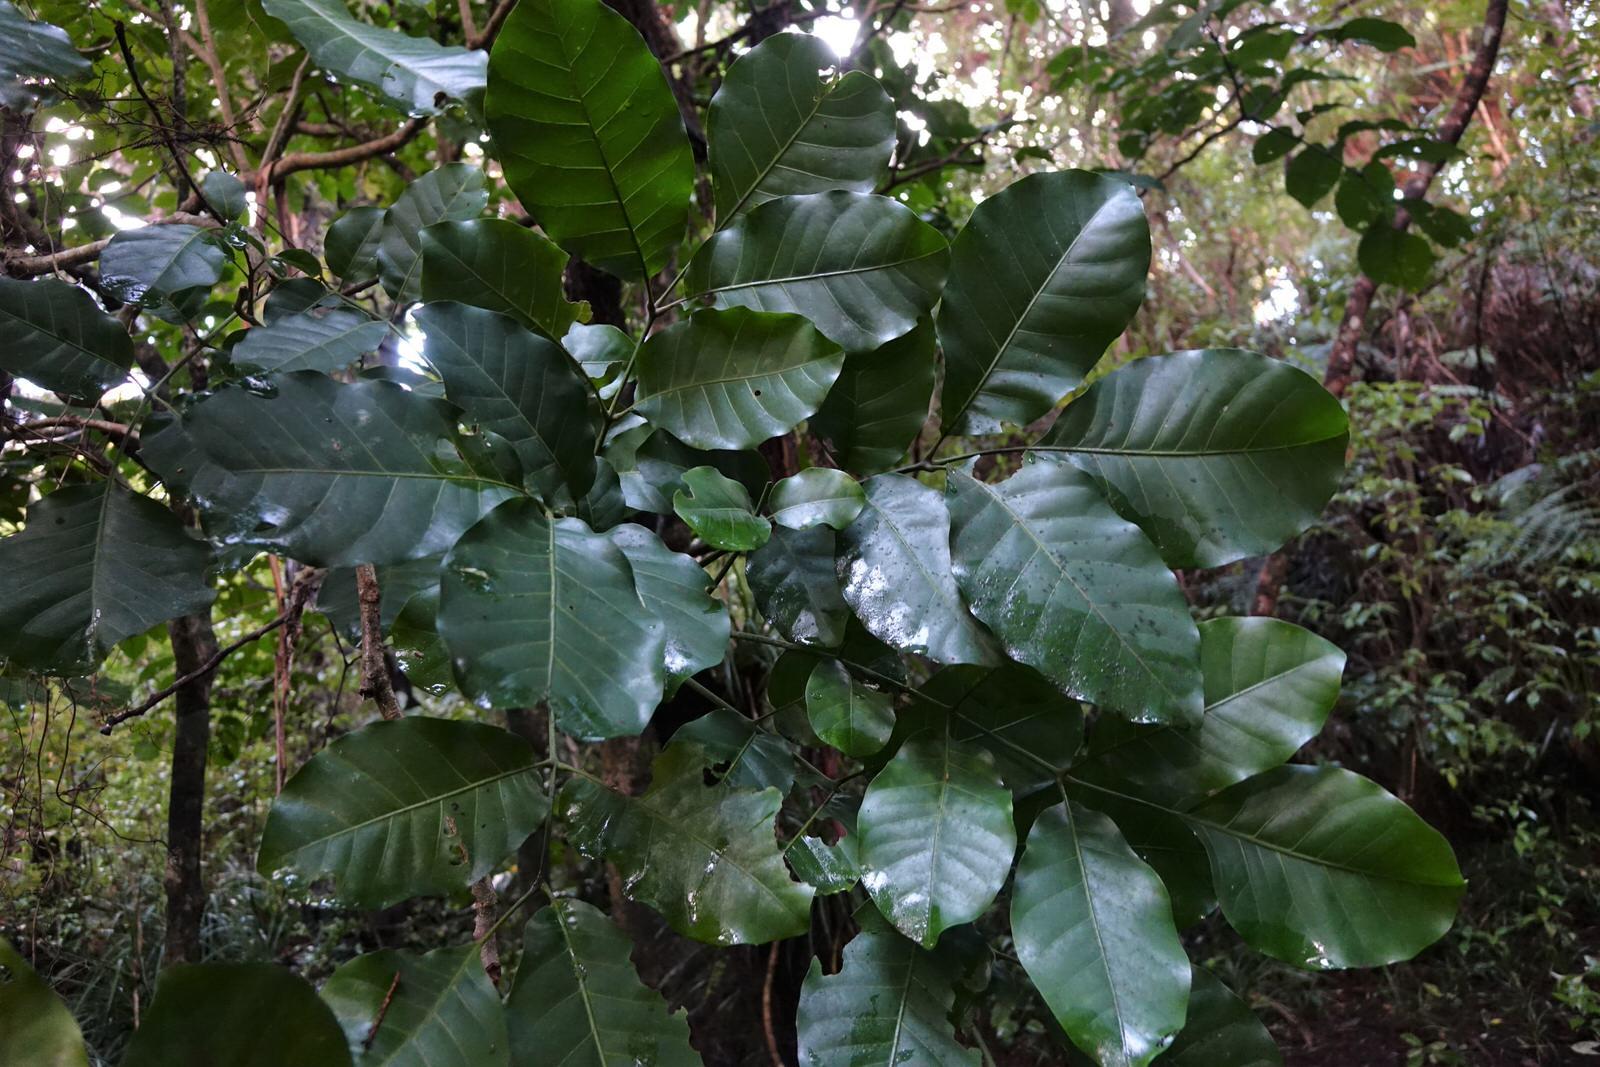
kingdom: Plantae
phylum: Tracheophyta
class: Magnoliopsida
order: Sapindales
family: Meliaceae
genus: Didymocheton
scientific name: Didymocheton spectabilis
